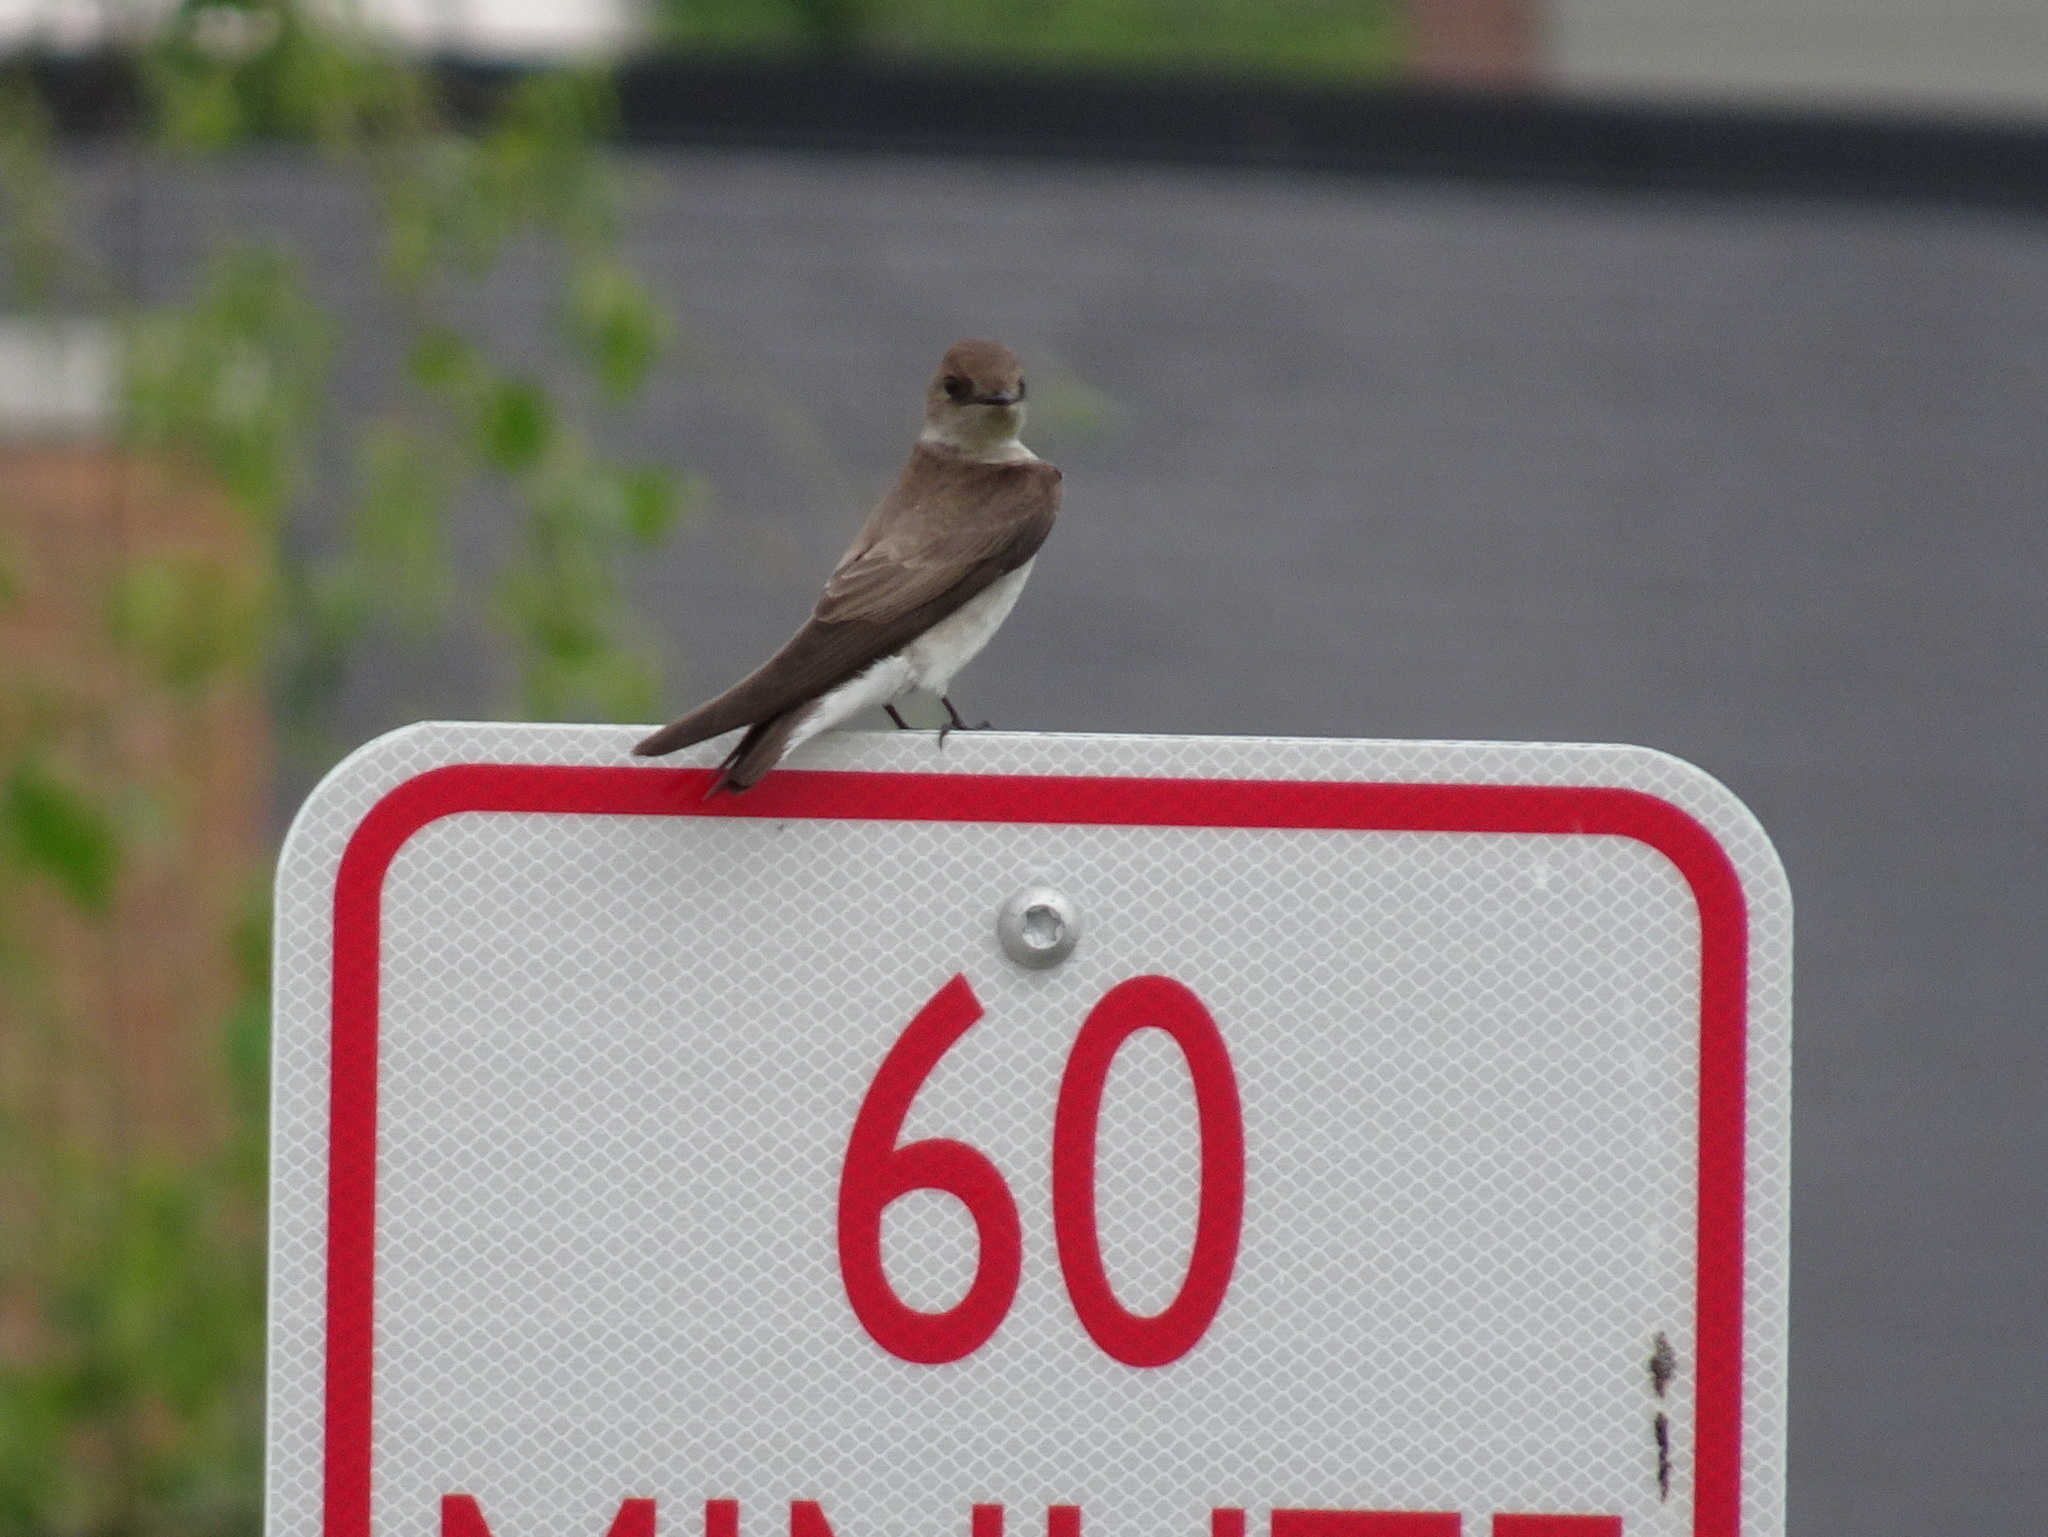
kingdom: Animalia
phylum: Chordata
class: Aves
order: Passeriformes
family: Hirundinidae
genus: Stelgidopteryx
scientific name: Stelgidopteryx serripennis
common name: Northern rough-winged swallow
